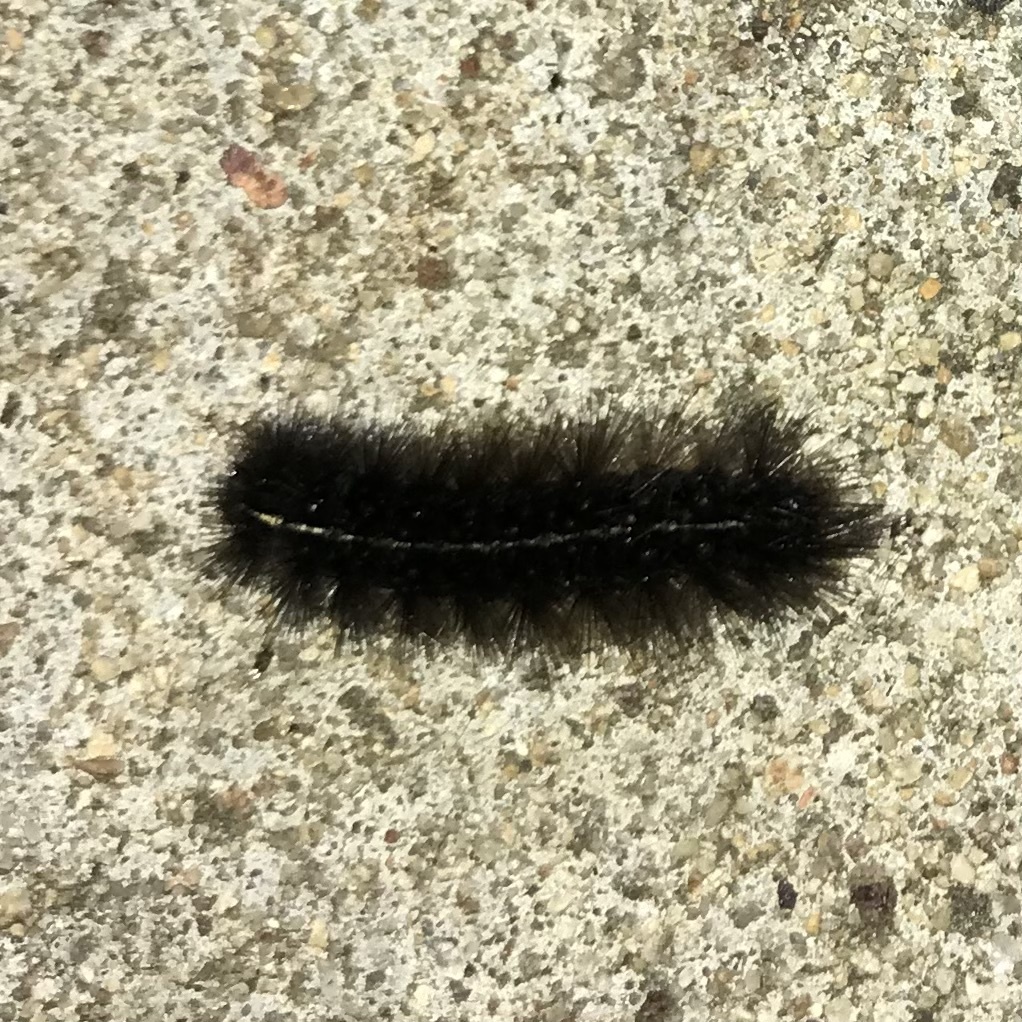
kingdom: Animalia
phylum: Arthropoda
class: Insecta
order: Lepidoptera
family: Erebidae
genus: Ardices
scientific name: Ardices curvata
